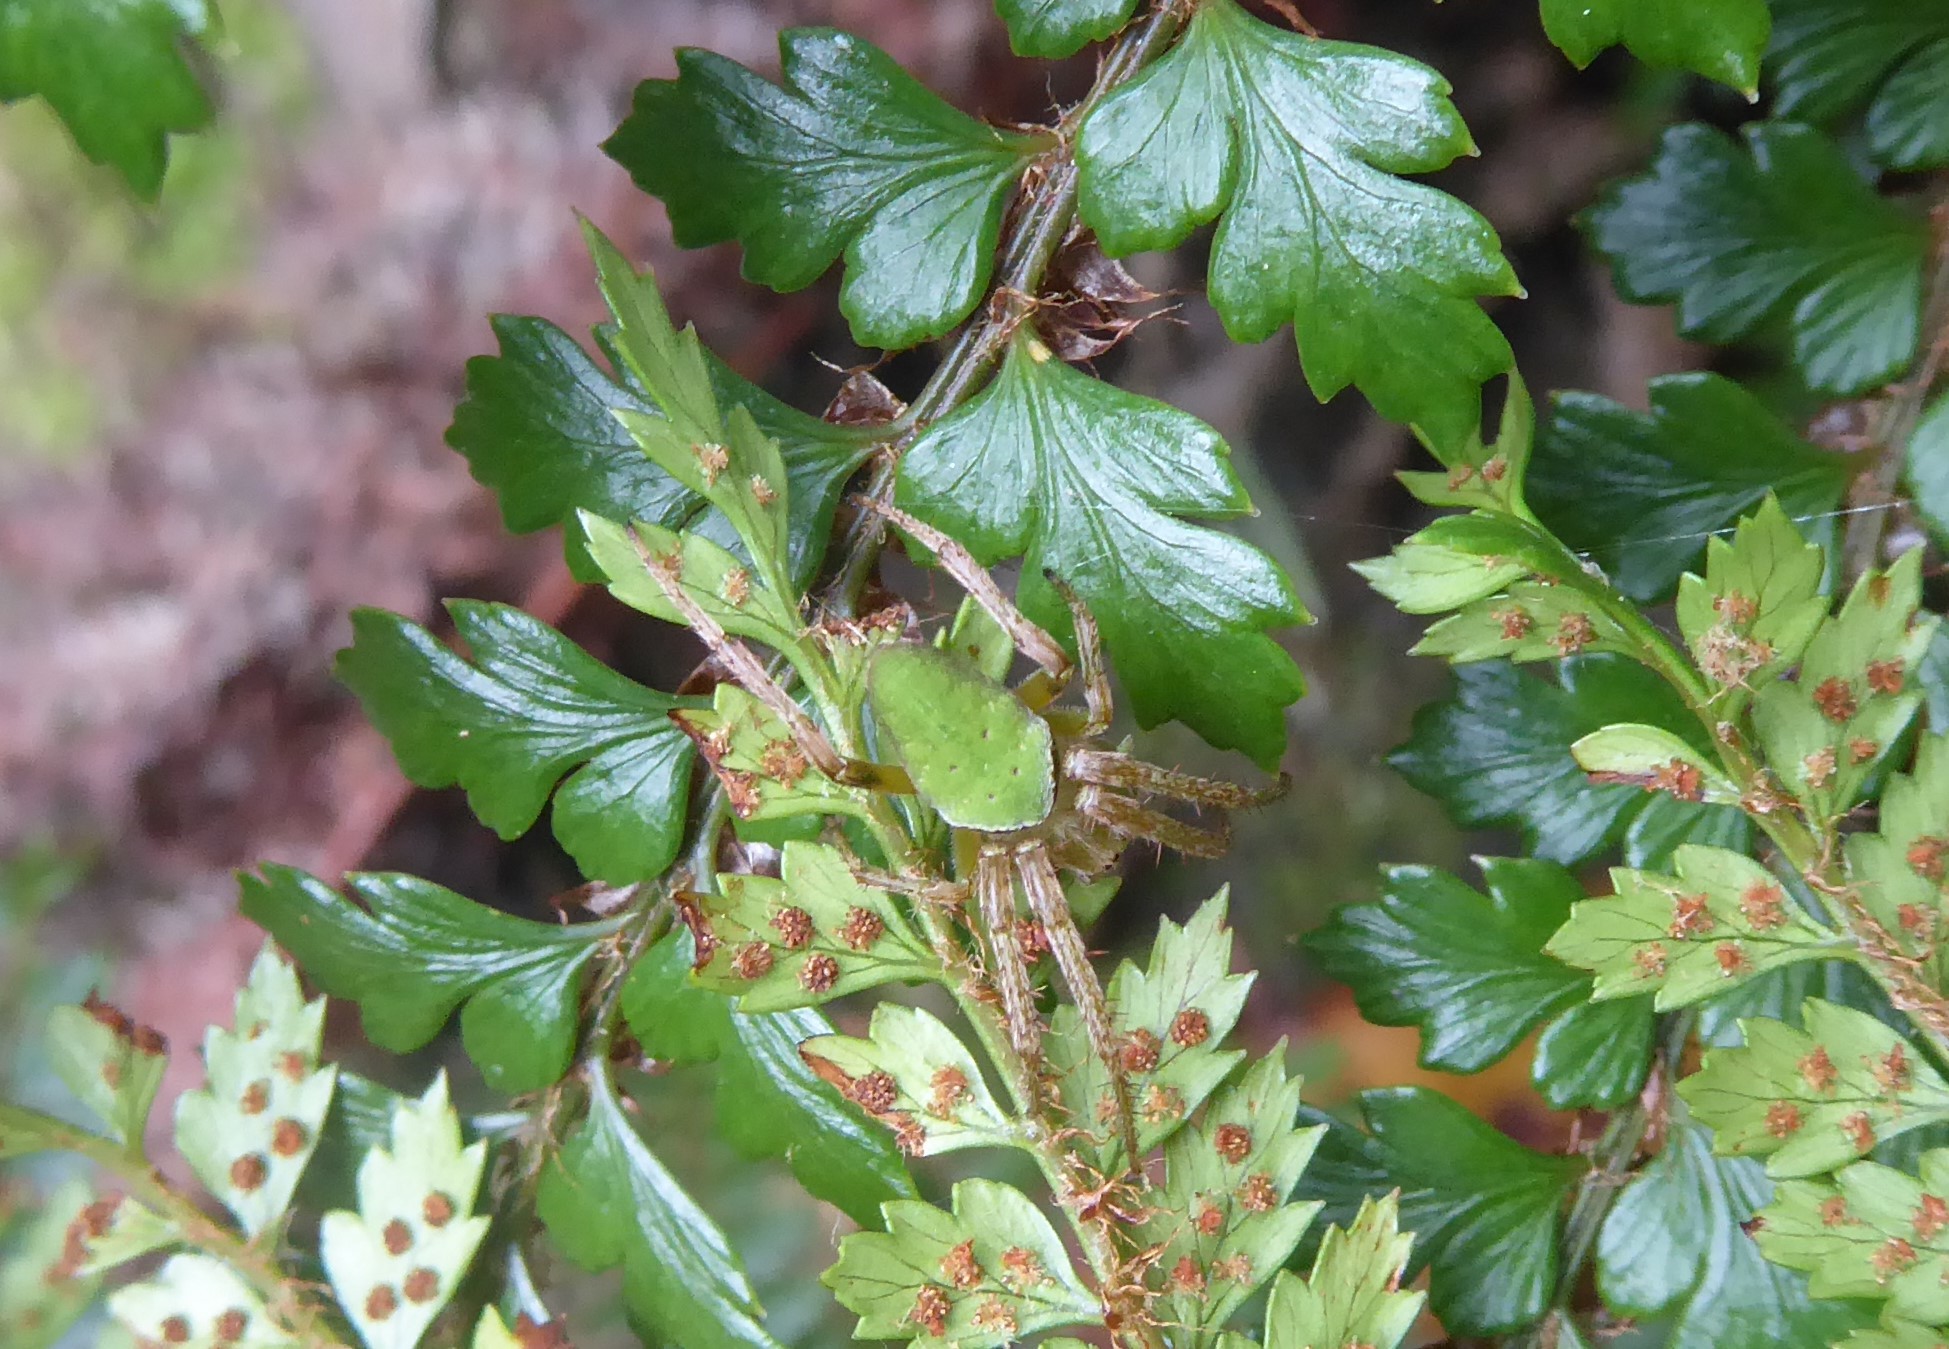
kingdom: Animalia
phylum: Arthropoda
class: Arachnida
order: Araneae
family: Araneidae
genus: Colaranea
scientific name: Colaranea viriditas
